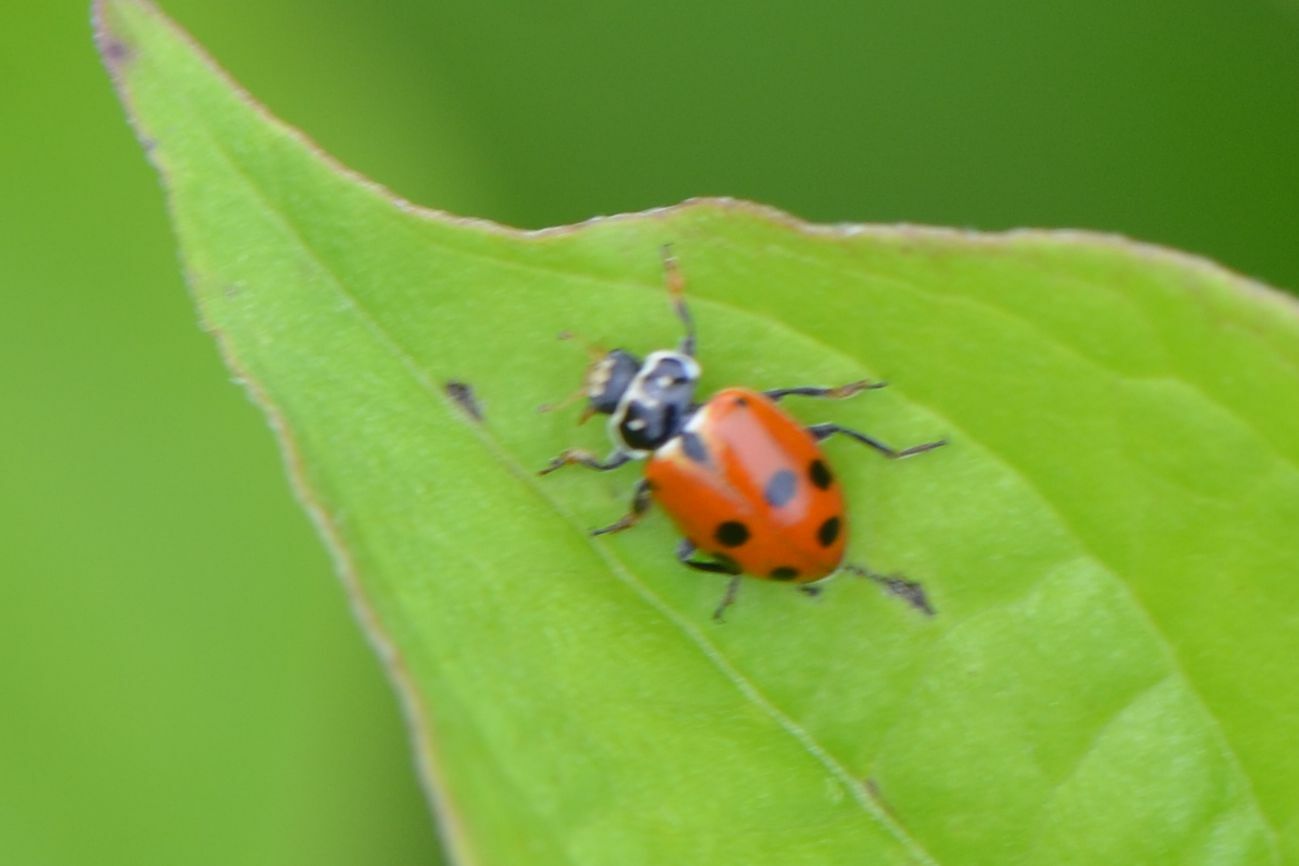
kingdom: Animalia
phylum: Arthropoda
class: Insecta
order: Coleoptera
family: Coccinellidae
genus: Hippodamia
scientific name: Hippodamia variegata
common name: Ladybird beetle
